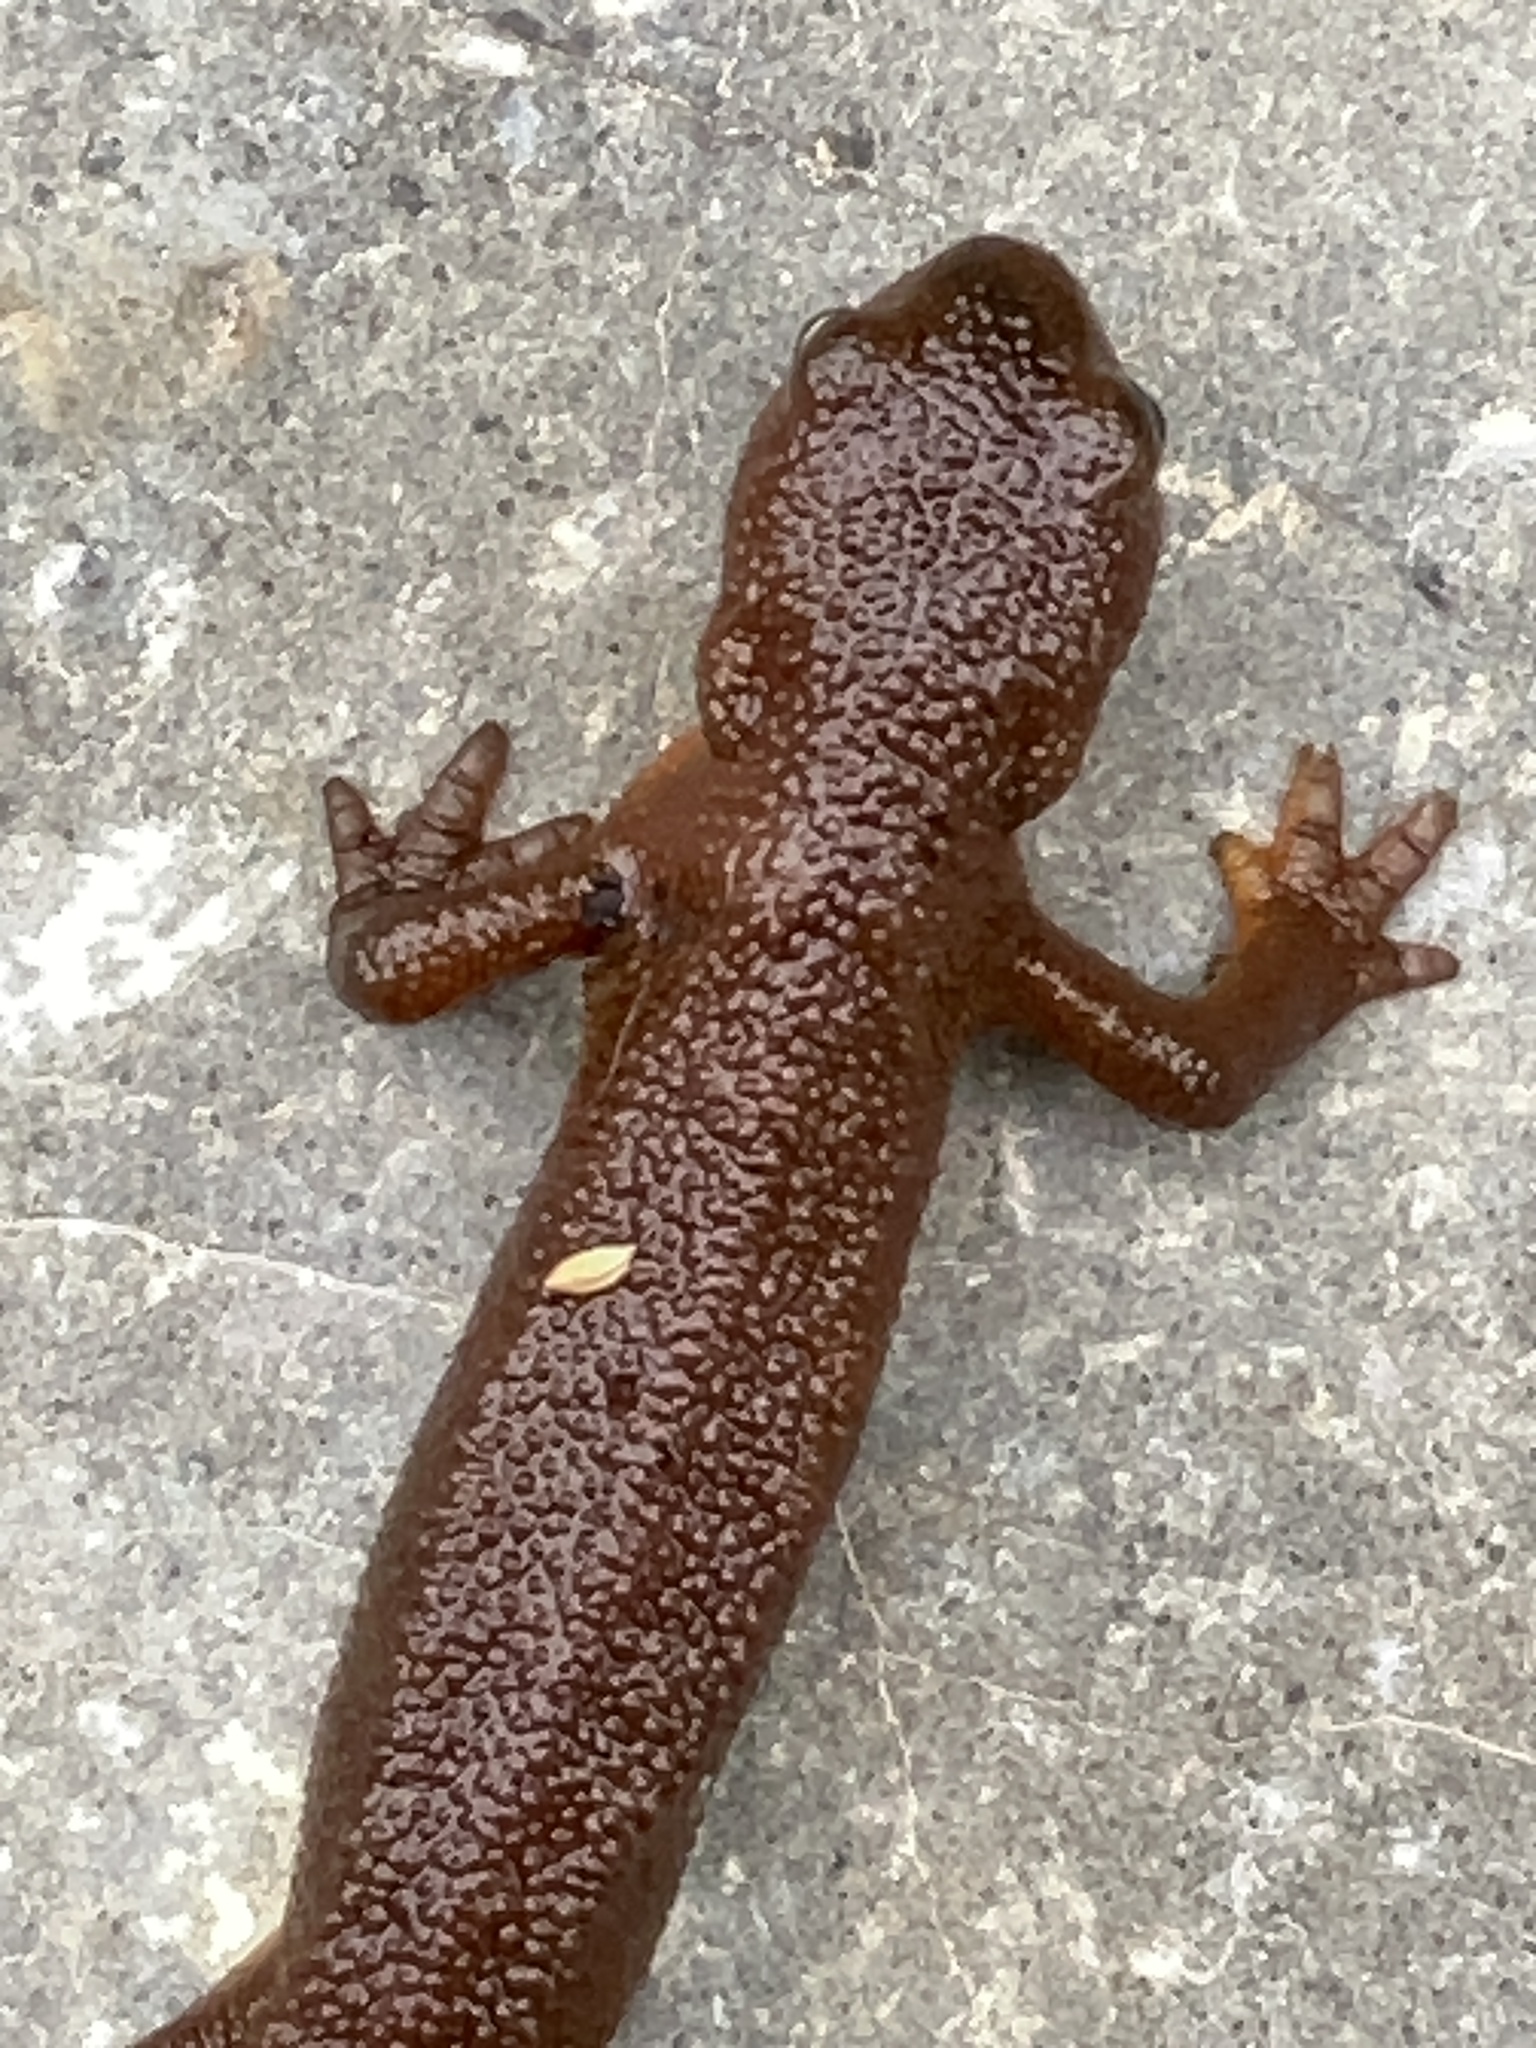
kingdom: Animalia
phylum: Chordata
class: Amphibia
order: Caudata
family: Salamandridae
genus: Taricha
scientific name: Taricha granulosa
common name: Roughskin newt
